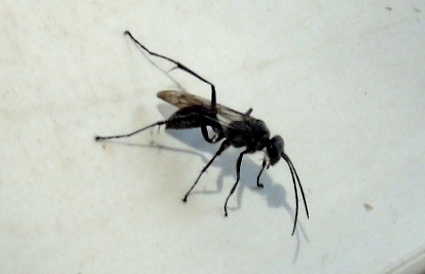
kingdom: Animalia
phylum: Arthropoda
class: Insecta
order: Hymenoptera
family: Pompilidae
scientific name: Pompilidae
